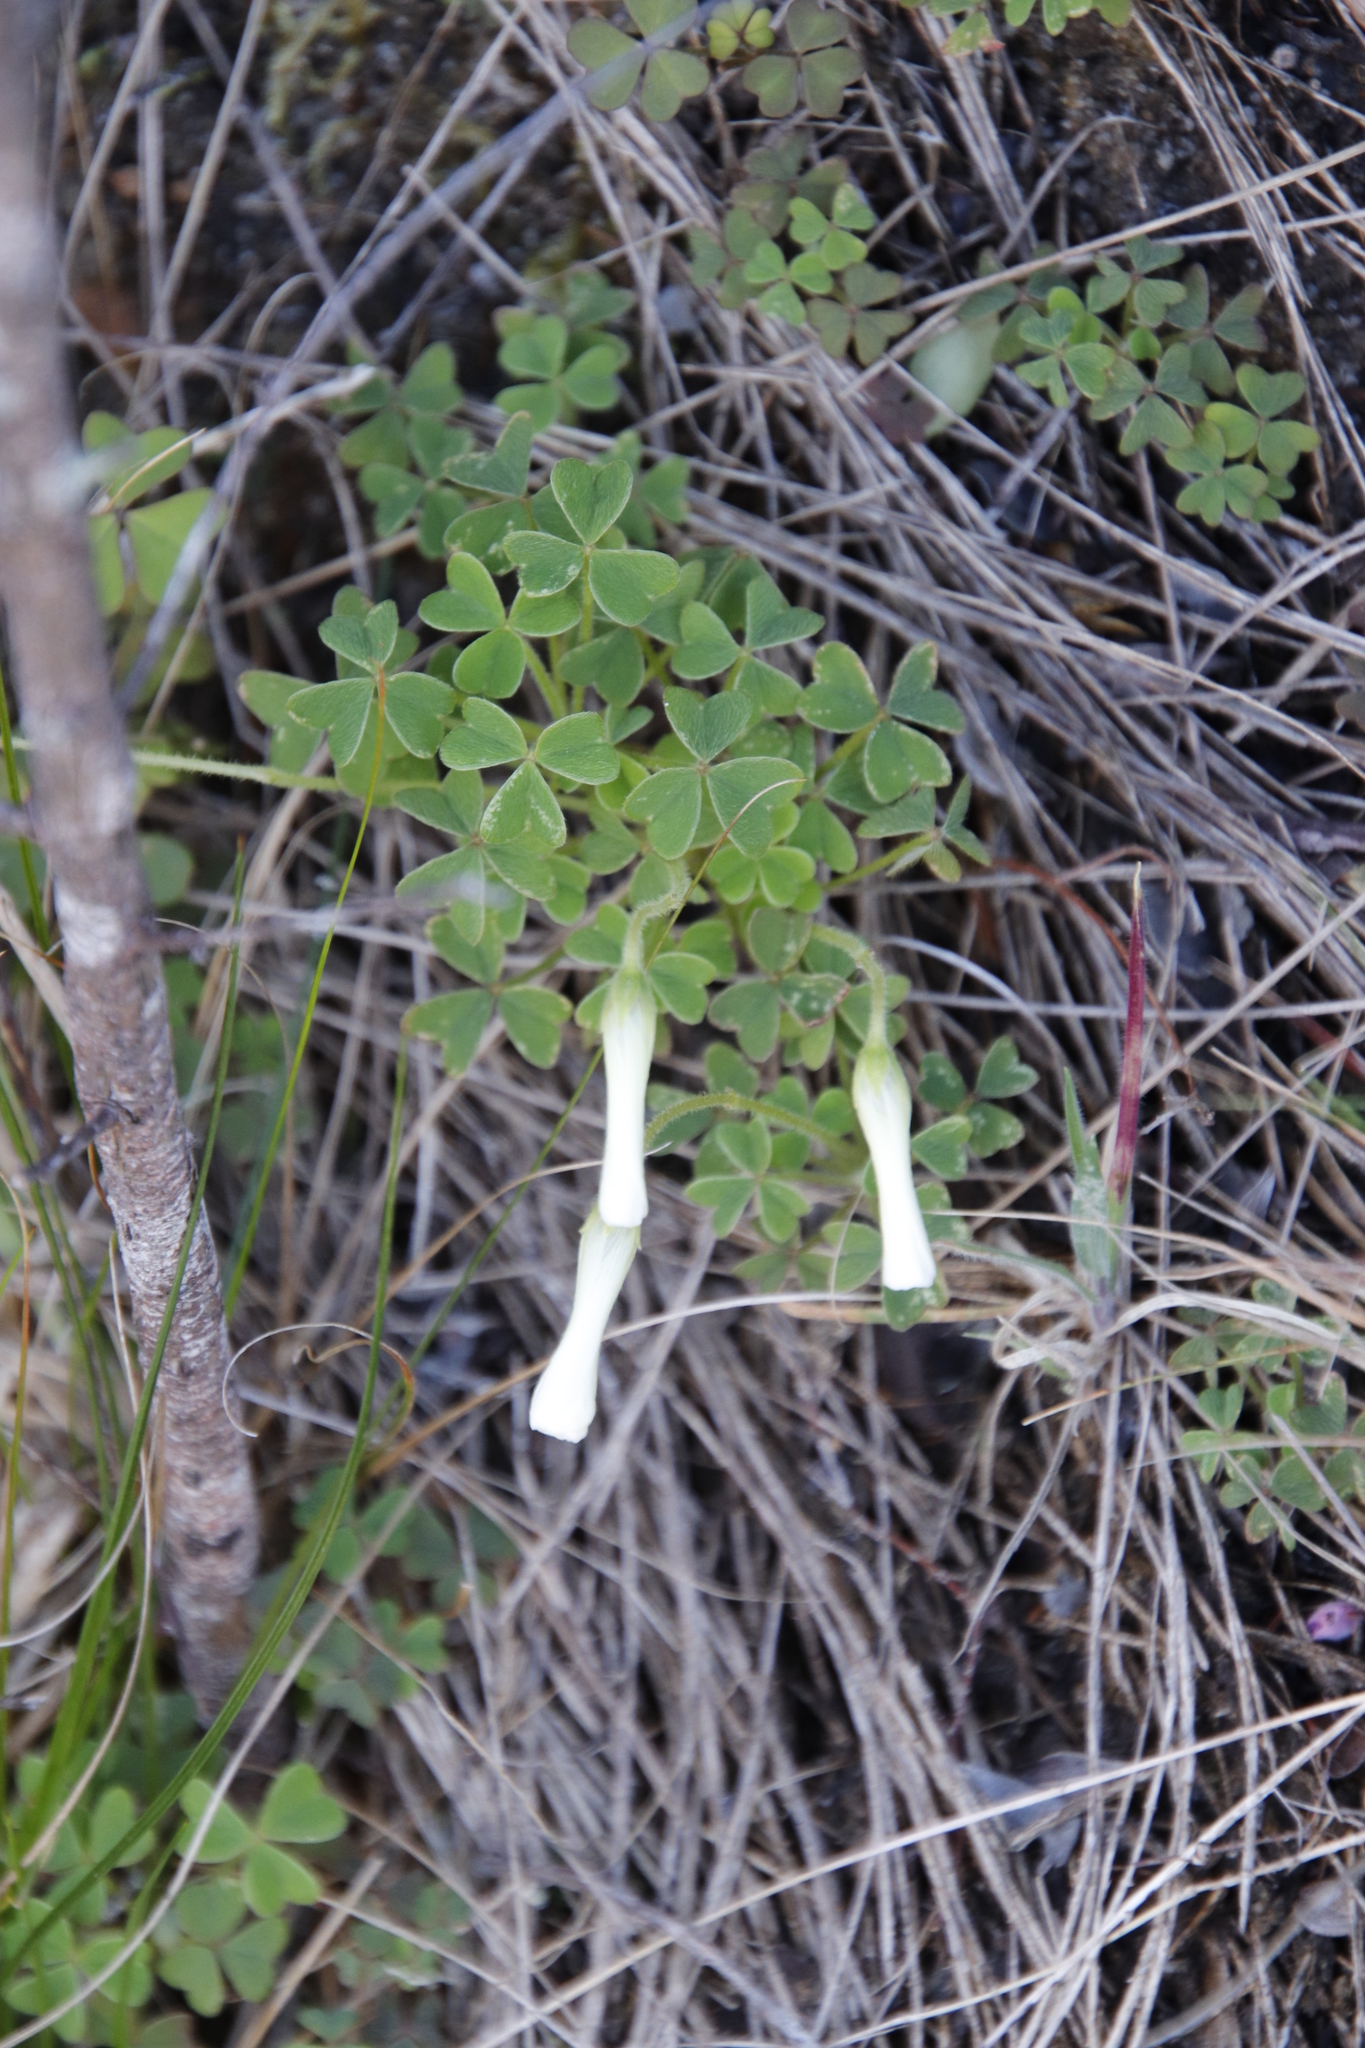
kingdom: Plantae
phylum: Tracheophyta
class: Magnoliopsida
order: Oxalidales
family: Oxalidaceae
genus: Oxalis
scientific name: Oxalis lanata
